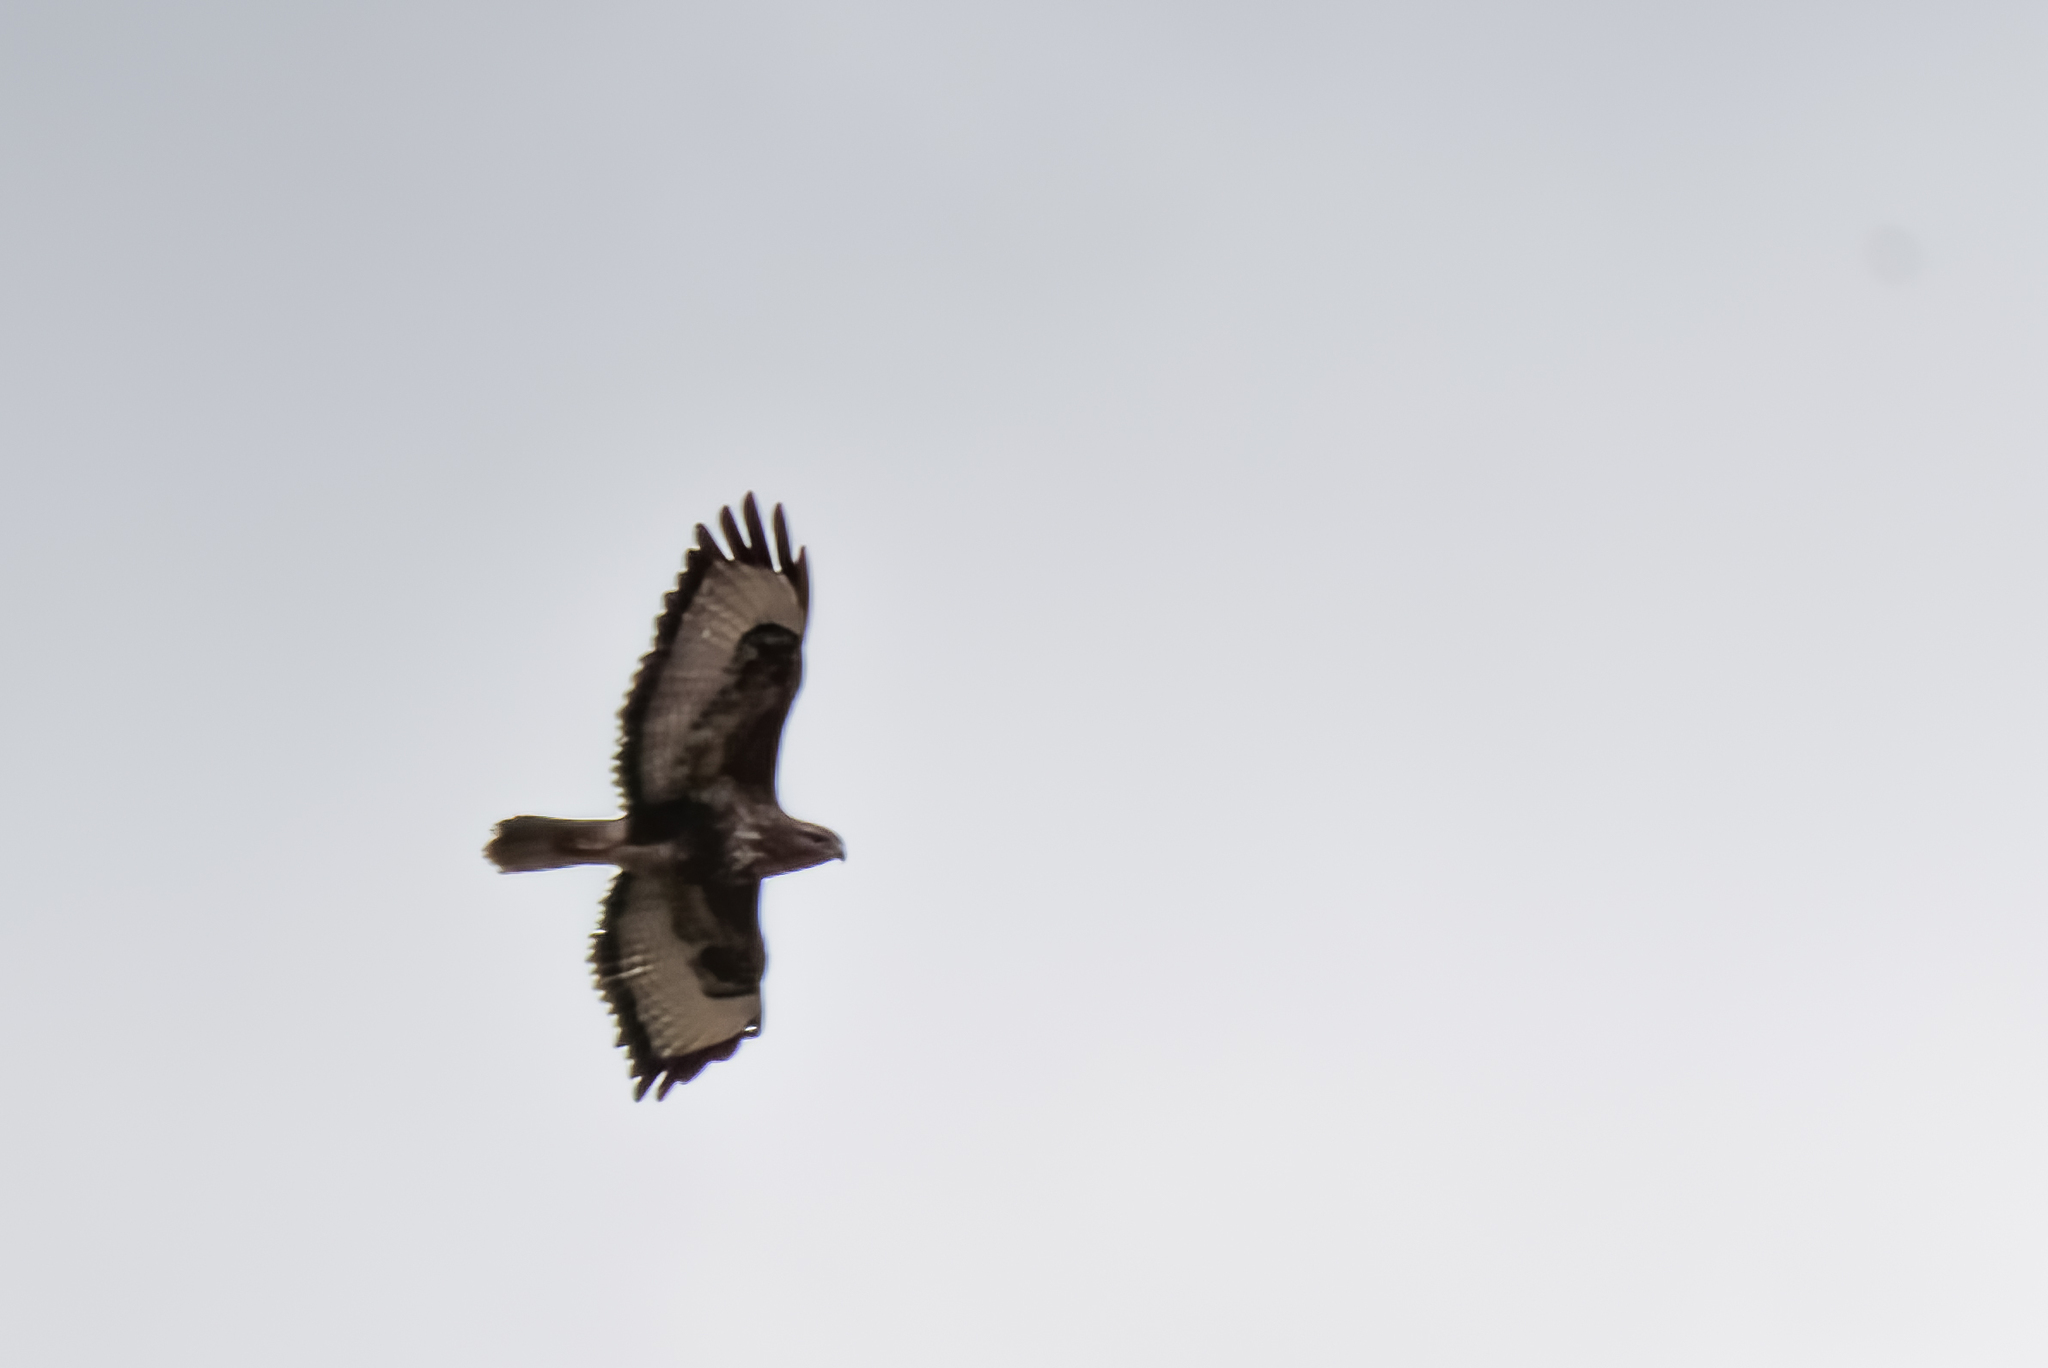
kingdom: Animalia
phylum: Chordata
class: Aves
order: Accipitriformes
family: Accipitridae
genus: Buteo
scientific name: Buteo buteo
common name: Common buzzard
